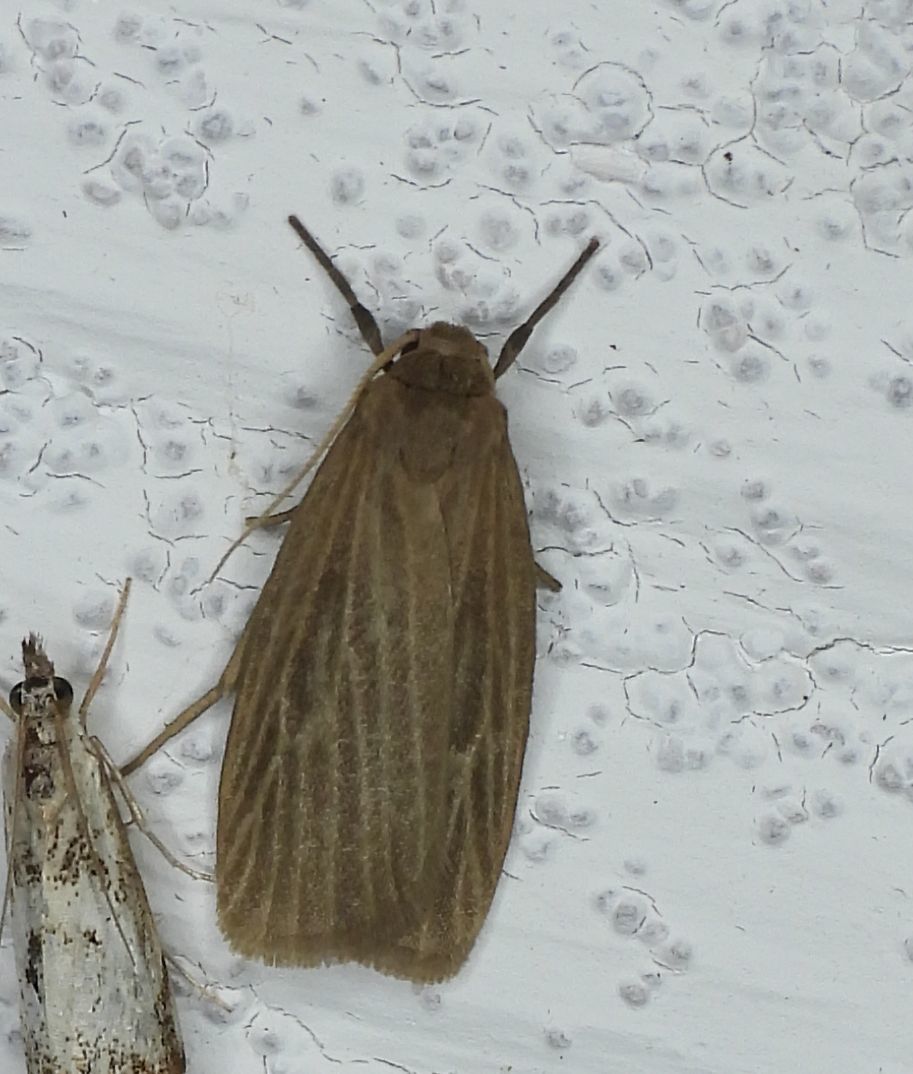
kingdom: Animalia
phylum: Arthropoda
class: Insecta
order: Lepidoptera
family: Erebidae
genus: Crambidia
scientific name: Crambidia pallida
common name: Pale lichen moth
